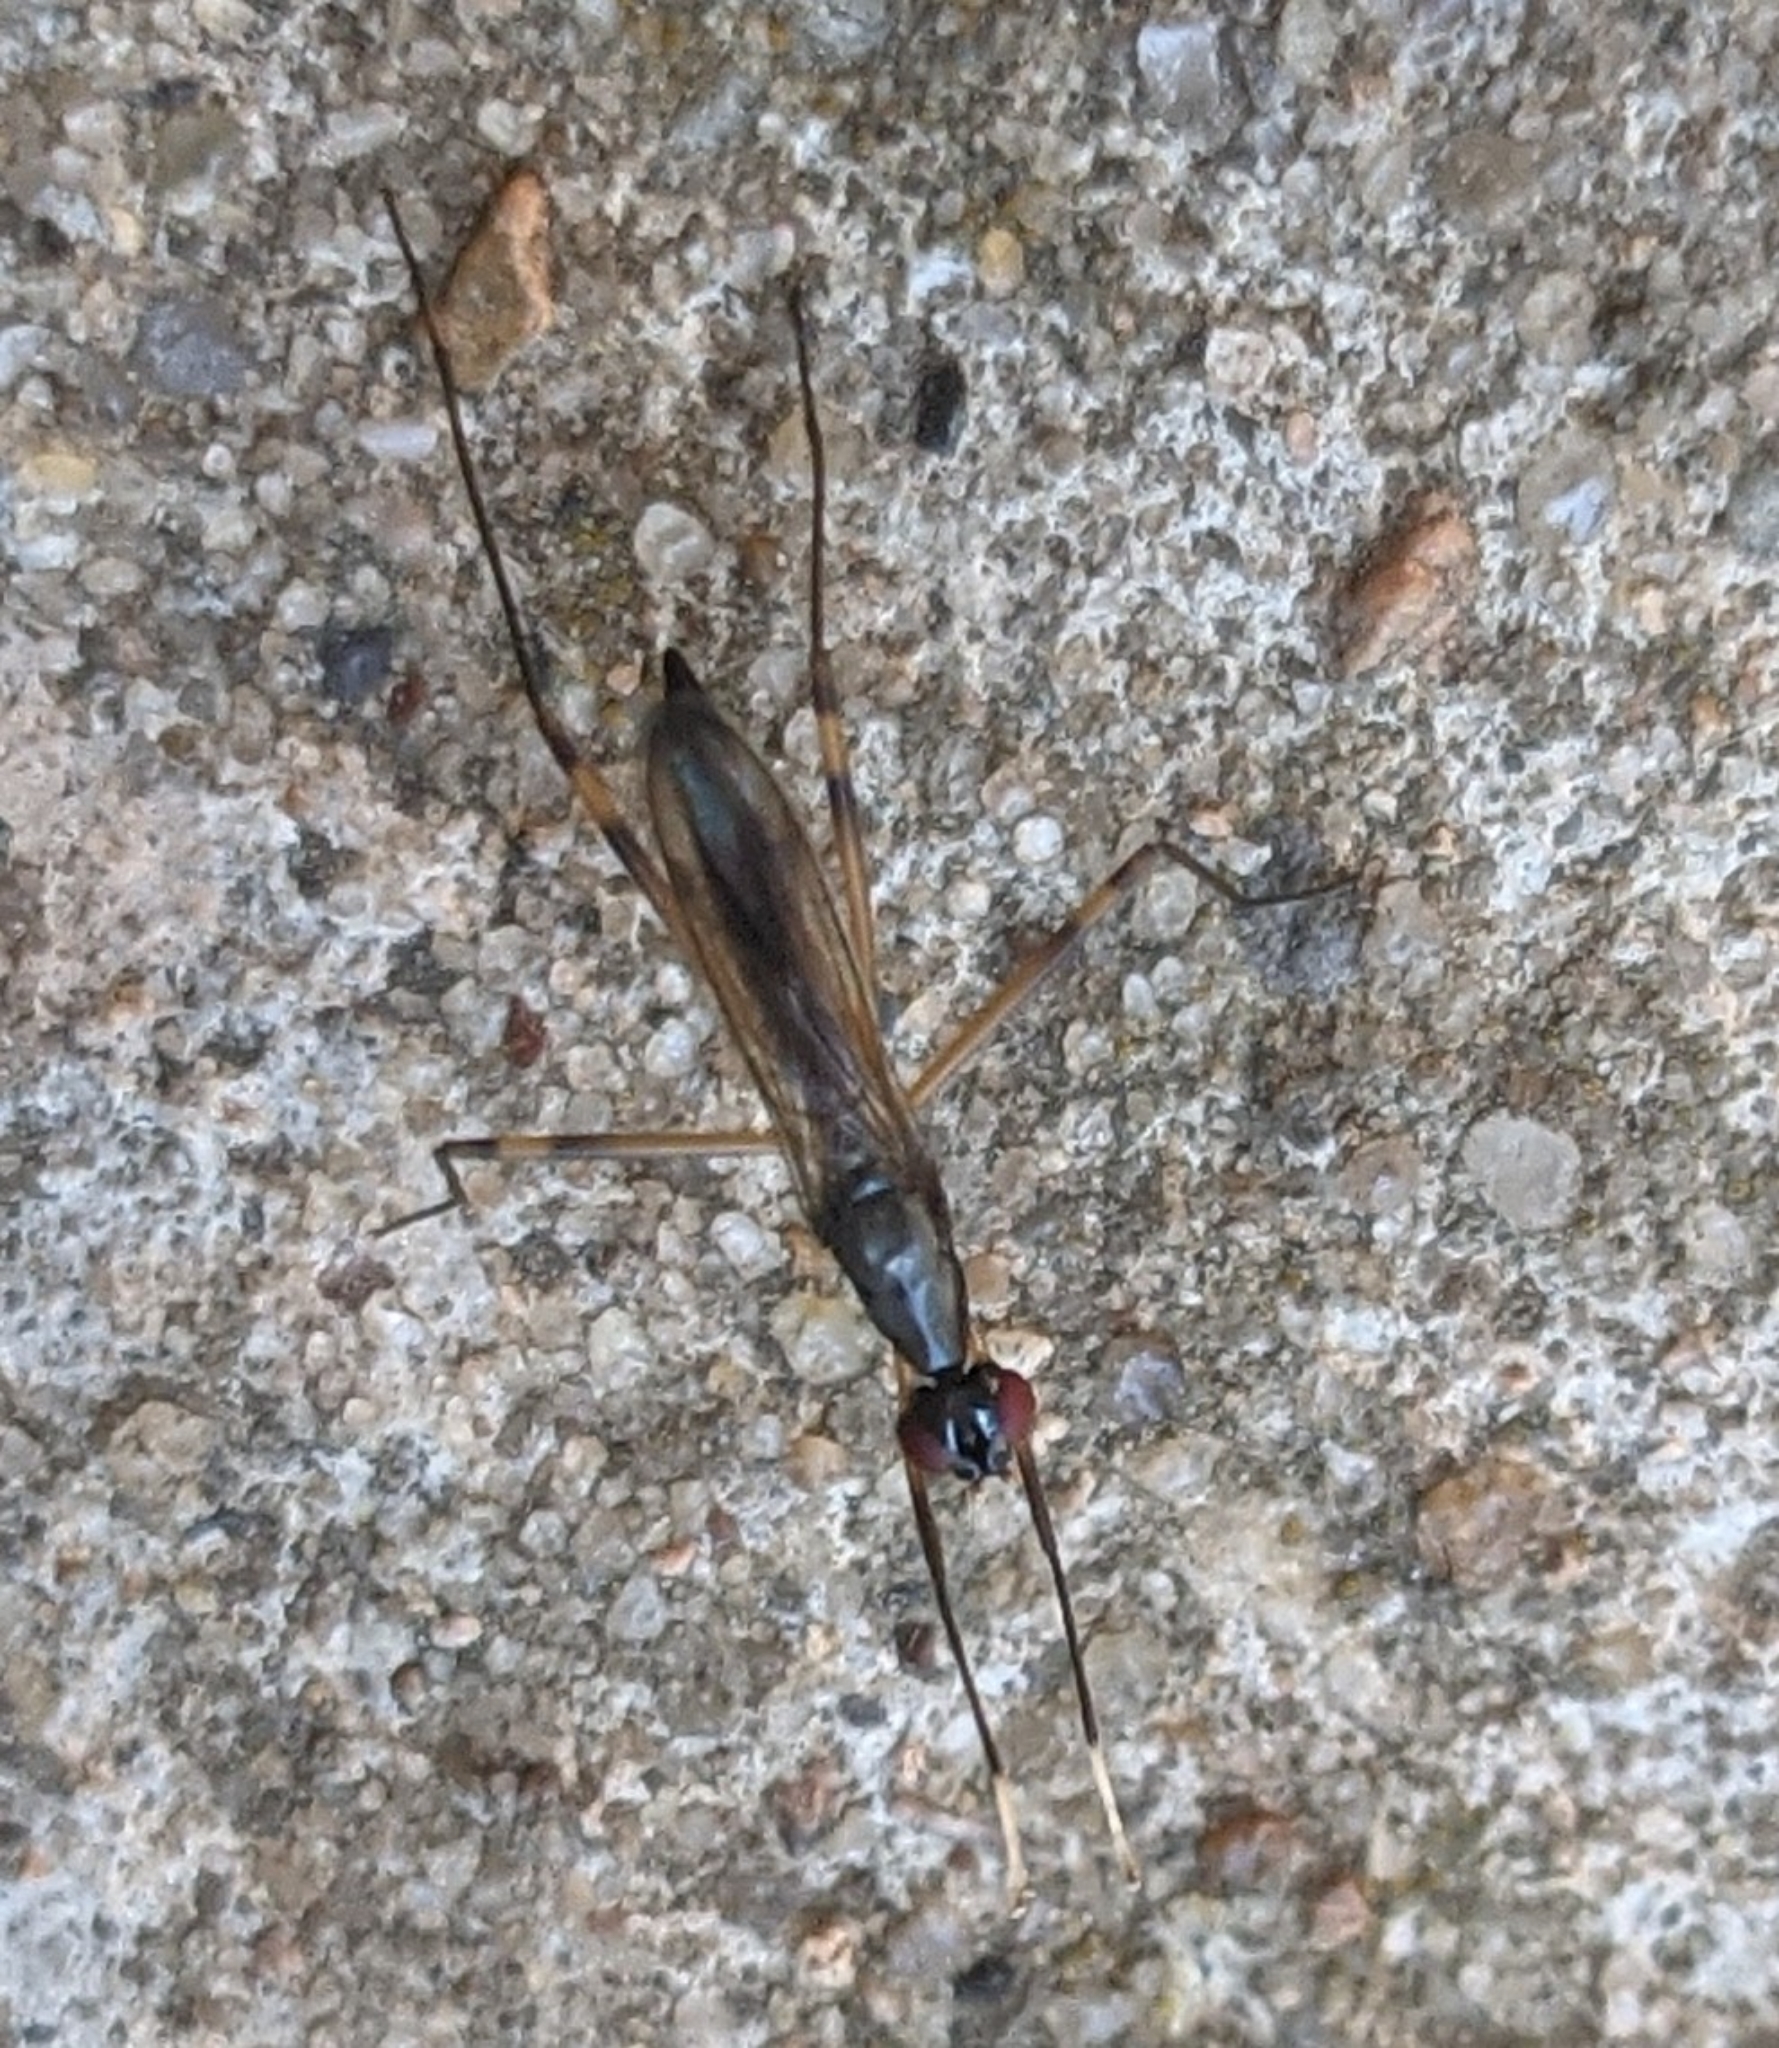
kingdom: Animalia
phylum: Arthropoda
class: Insecta
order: Diptera
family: Micropezidae
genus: Rainieria
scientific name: Rainieria antennaepes
